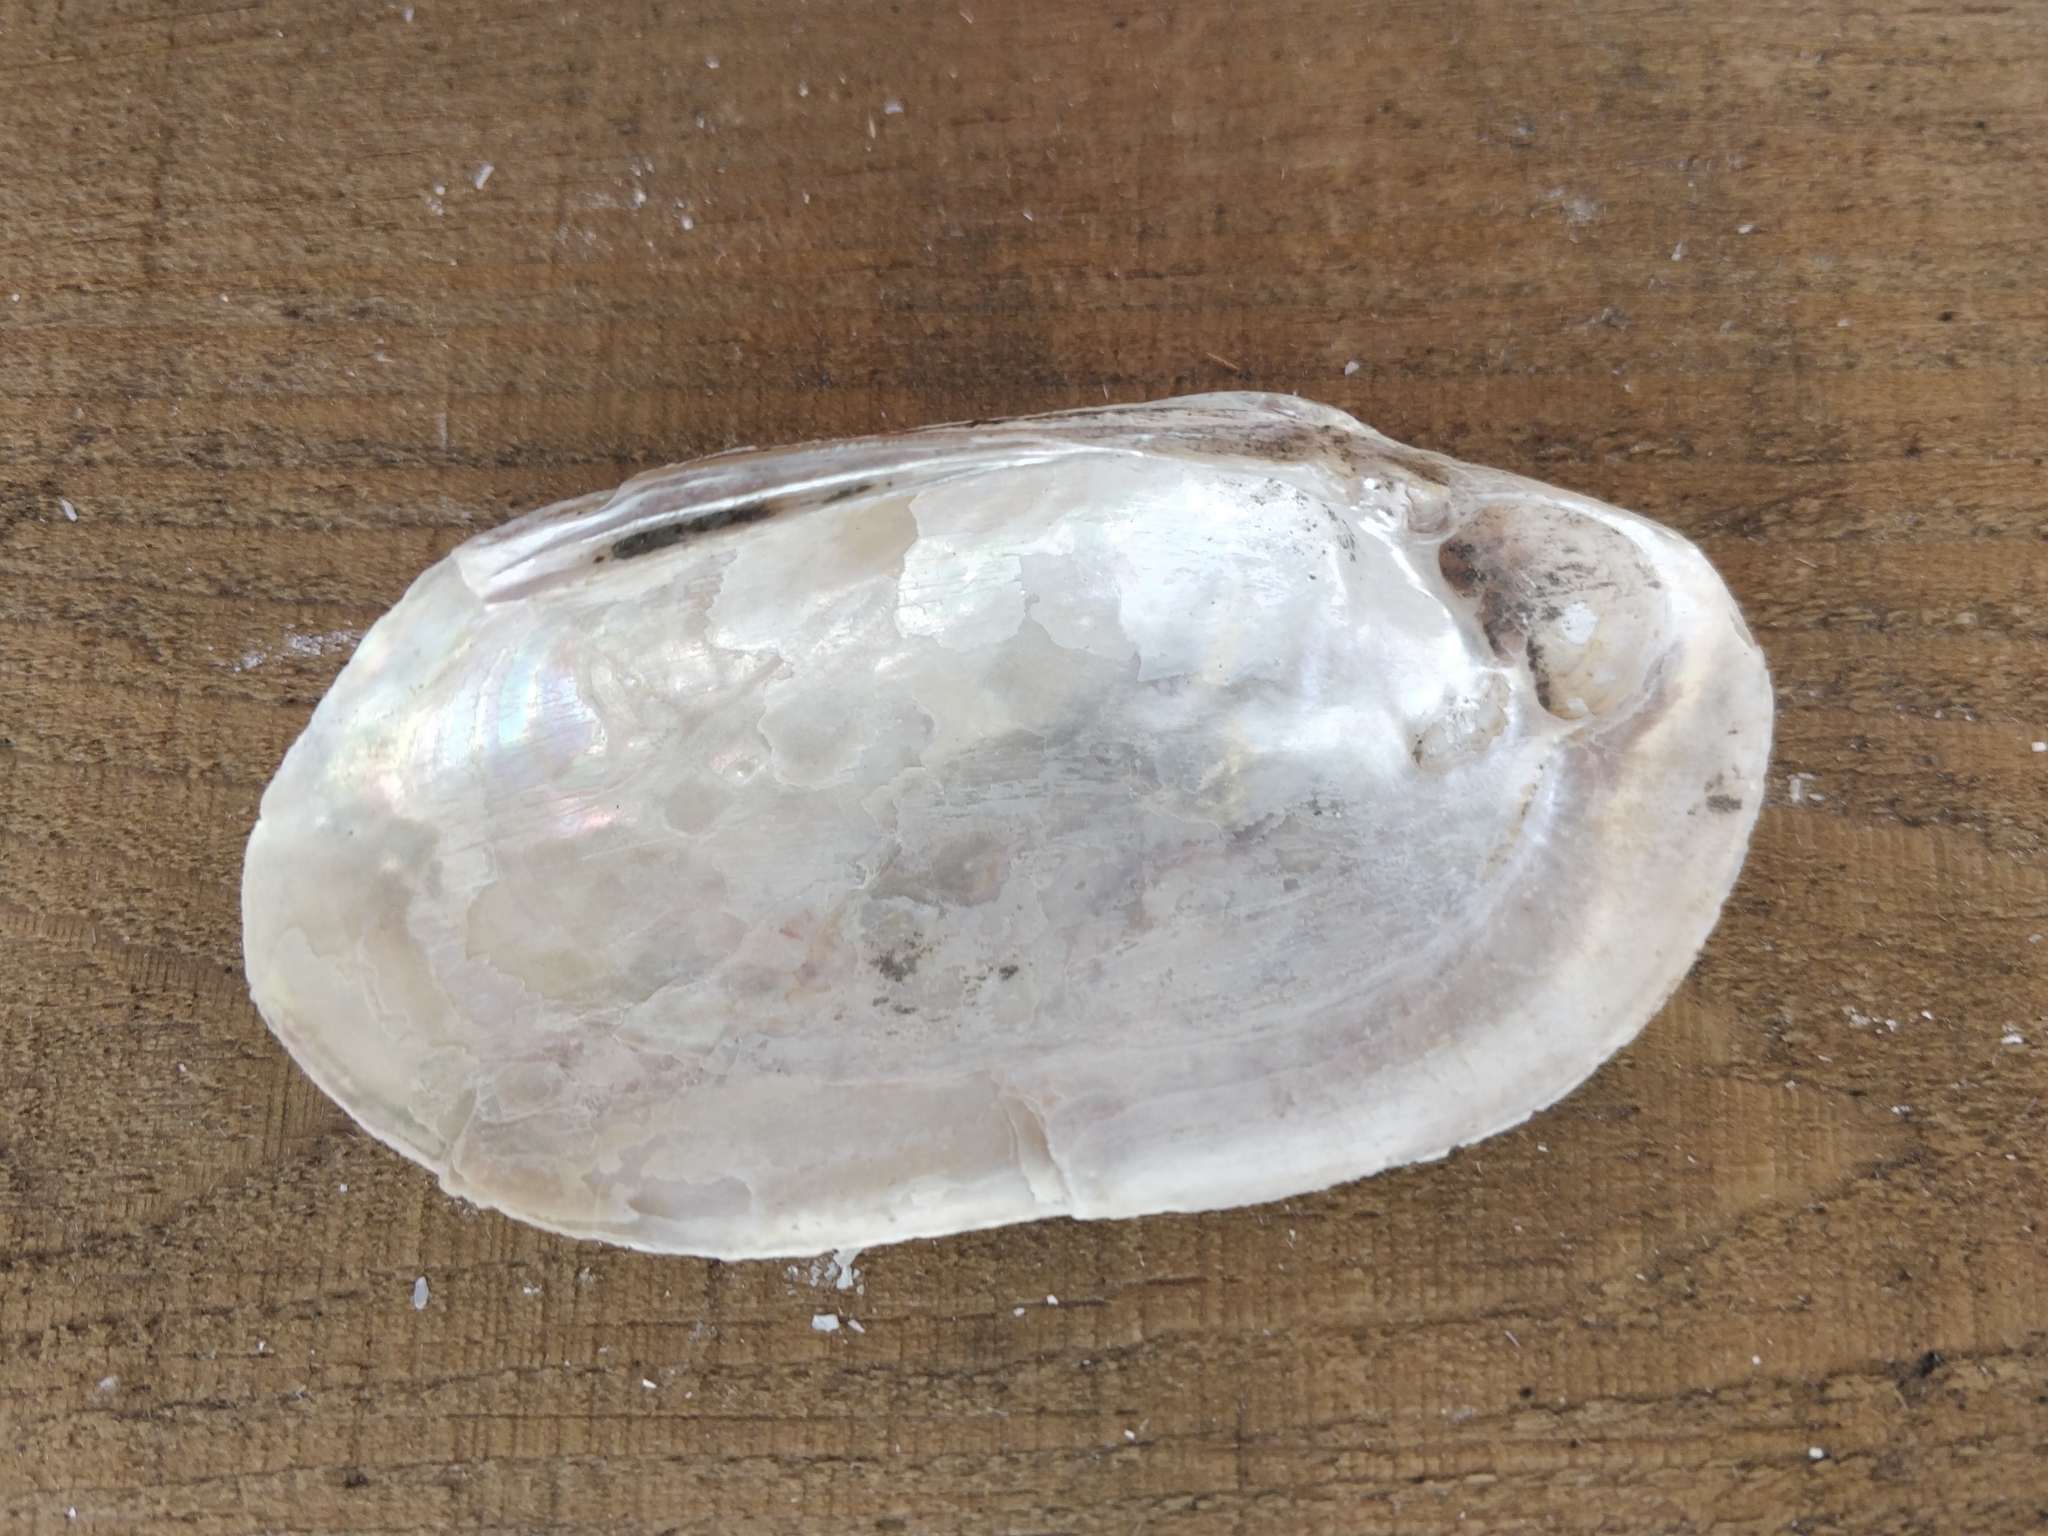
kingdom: Animalia
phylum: Mollusca
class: Bivalvia
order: Unionida
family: Unionidae
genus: Lampsilis
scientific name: Lampsilis siliquoidea
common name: Fatmucket
